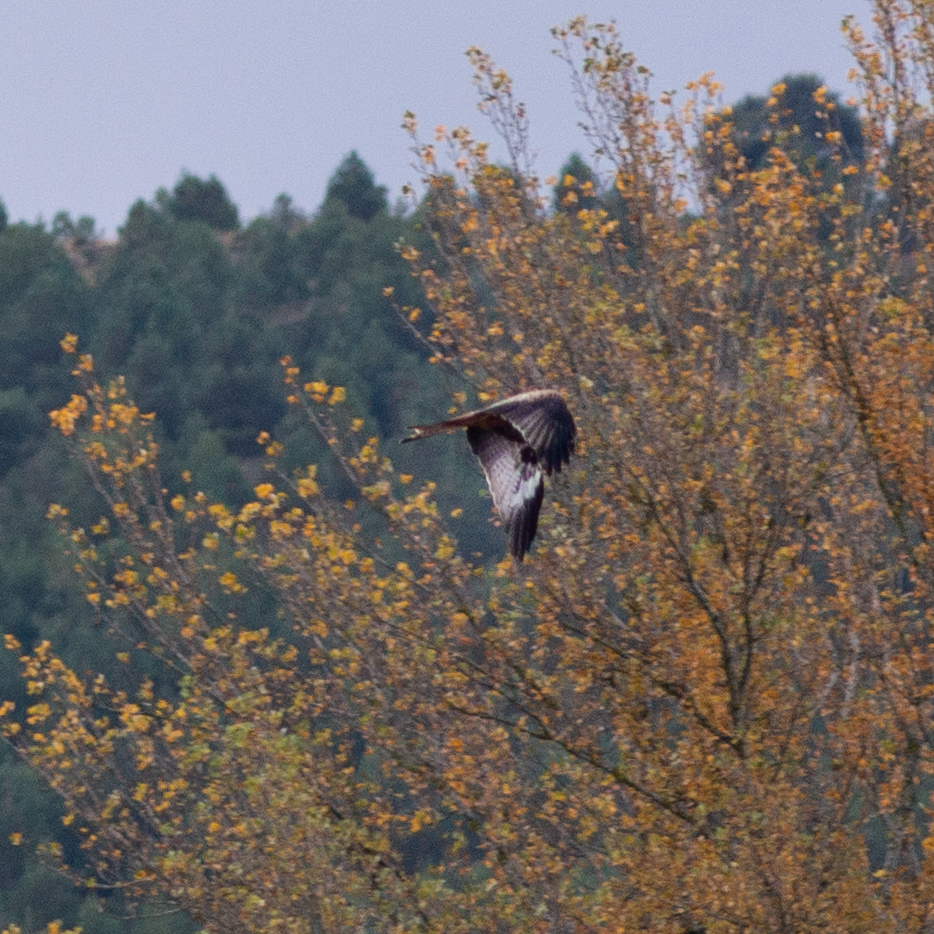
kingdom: Animalia
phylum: Chordata
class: Aves
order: Accipitriformes
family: Accipitridae
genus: Milvus
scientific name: Milvus milvus
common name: Red kite
